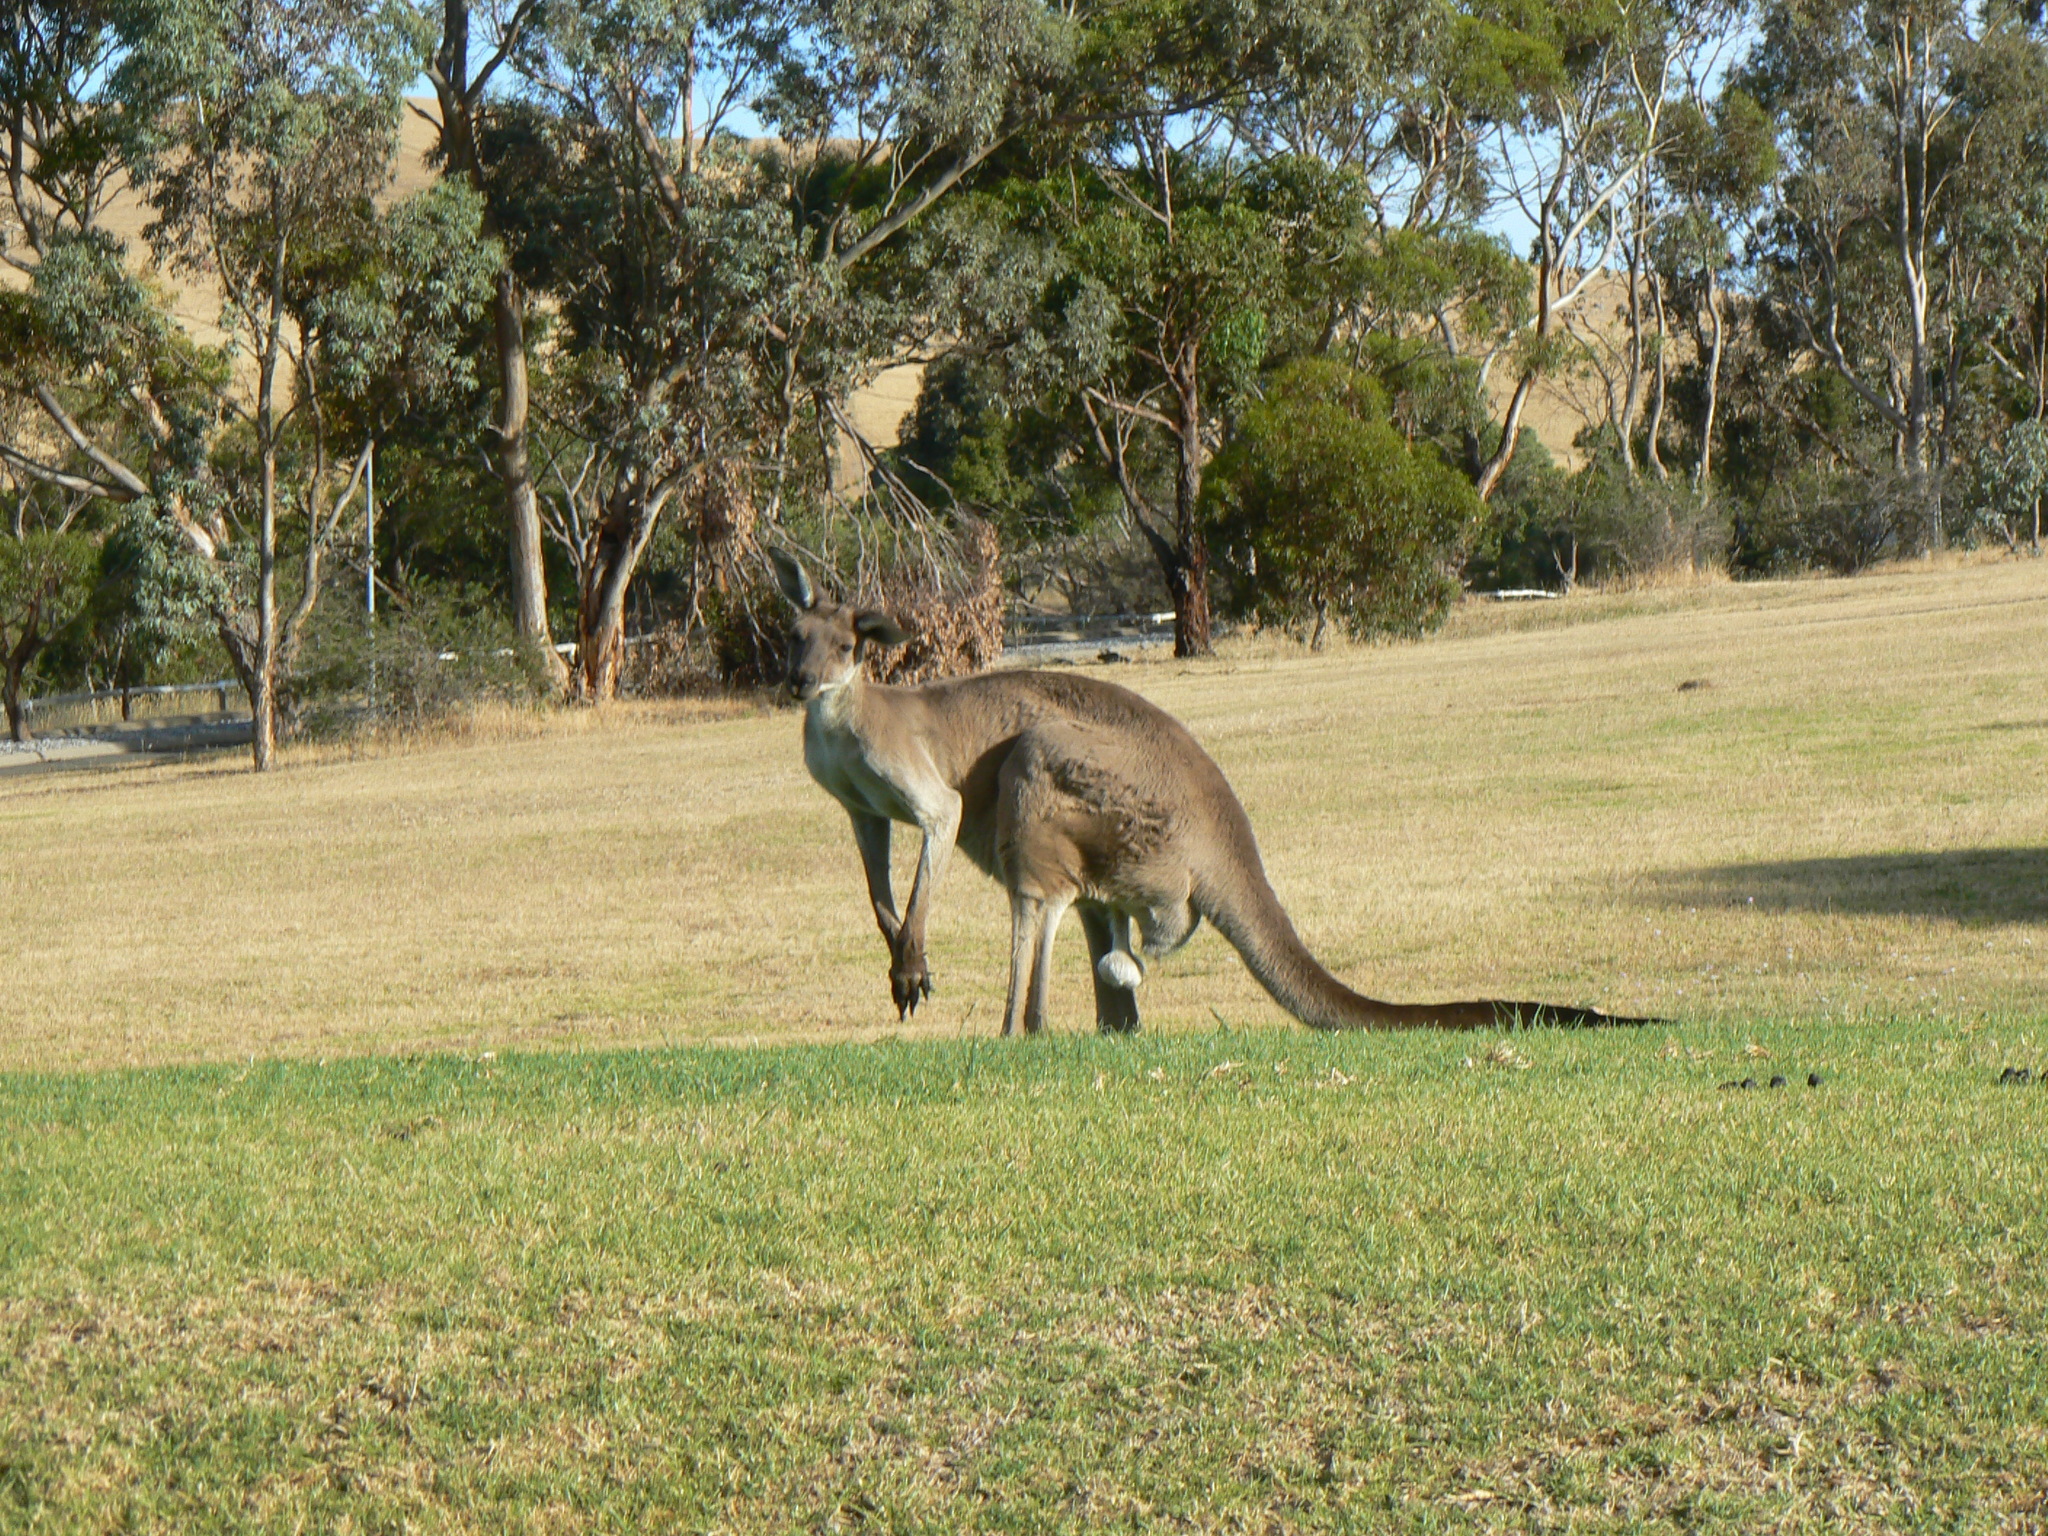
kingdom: Animalia
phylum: Chordata
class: Mammalia
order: Diprotodontia
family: Macropodidae
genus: Macropus
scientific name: Macropus fuliginosus
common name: Western grey kangaroo
